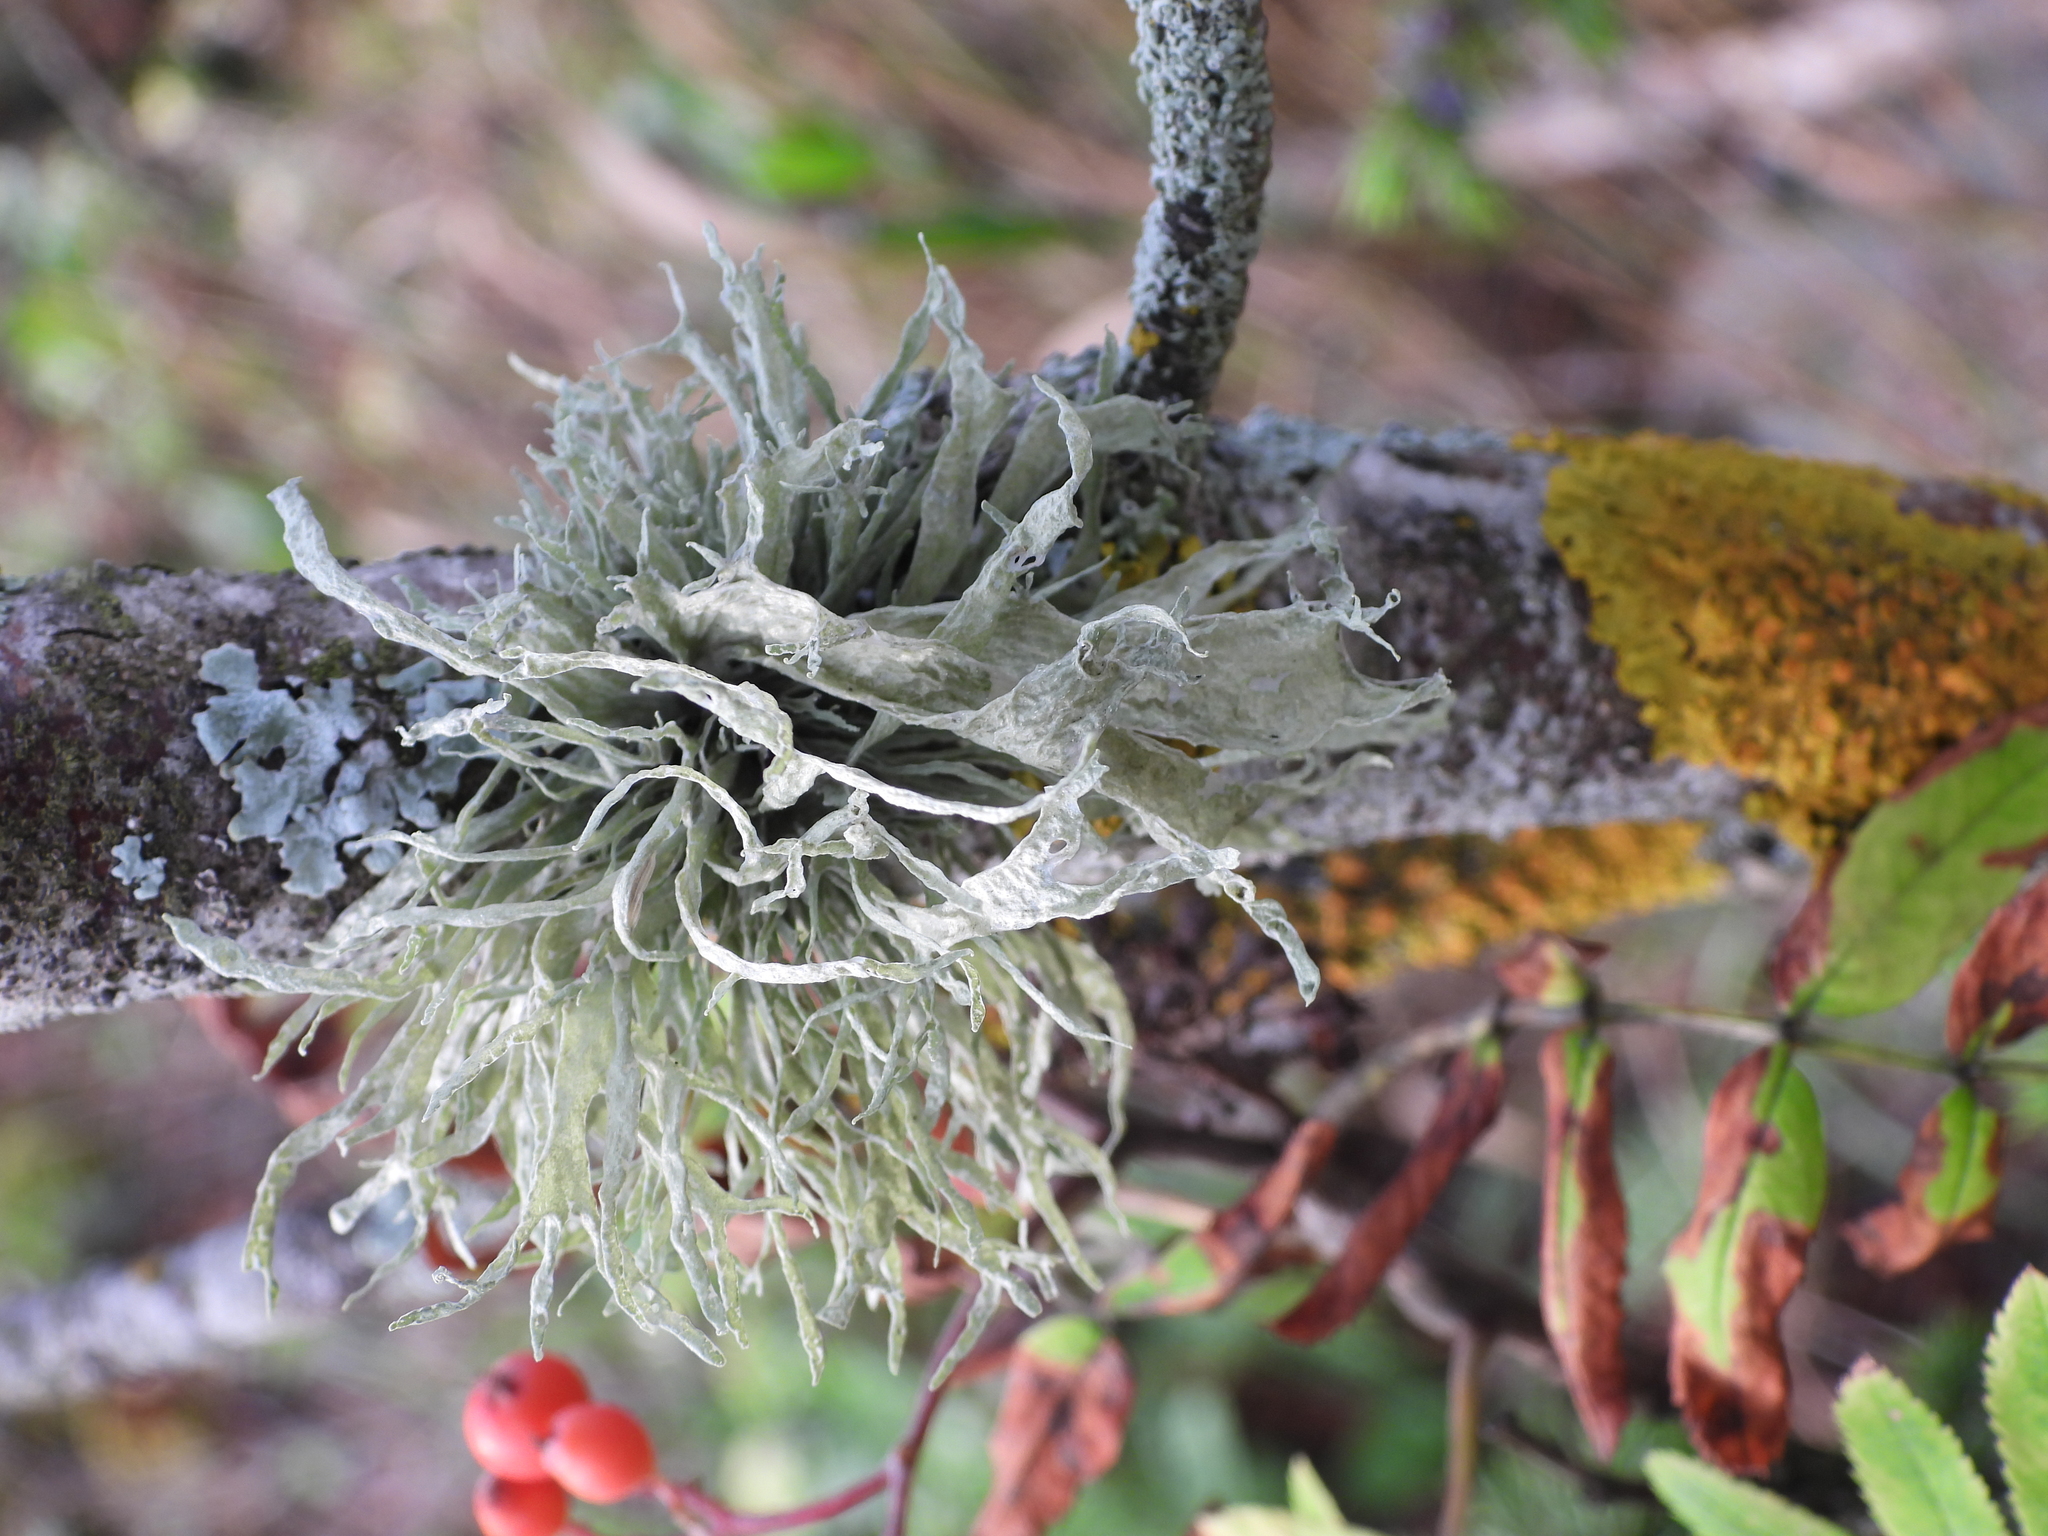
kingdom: Fungi
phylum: Ascomycota
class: Lecanoromycetes
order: Lecanorales
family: Ramalinaceae
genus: Ramalina
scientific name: Ramalina fraxinea
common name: Cartilage lichen
